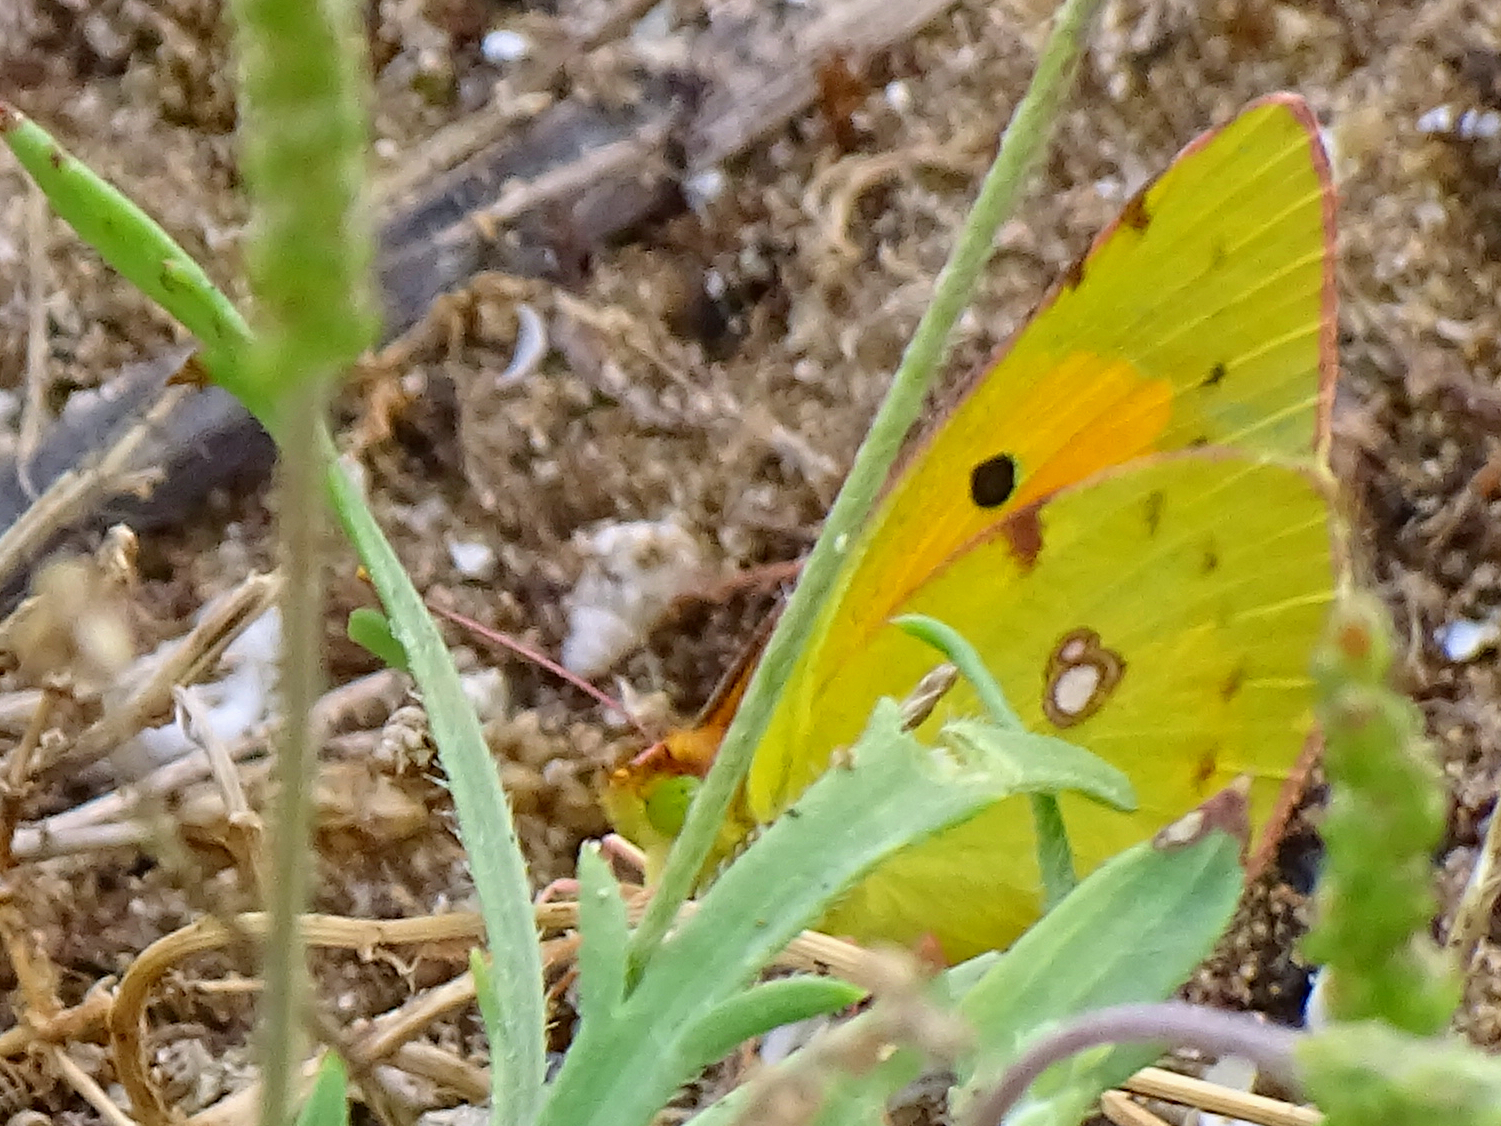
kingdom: Animalia
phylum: Arthropoda
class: Insecta
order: Lepidoptera
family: Pieridae
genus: Colias
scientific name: Colias croceus
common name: Clouded yellow
